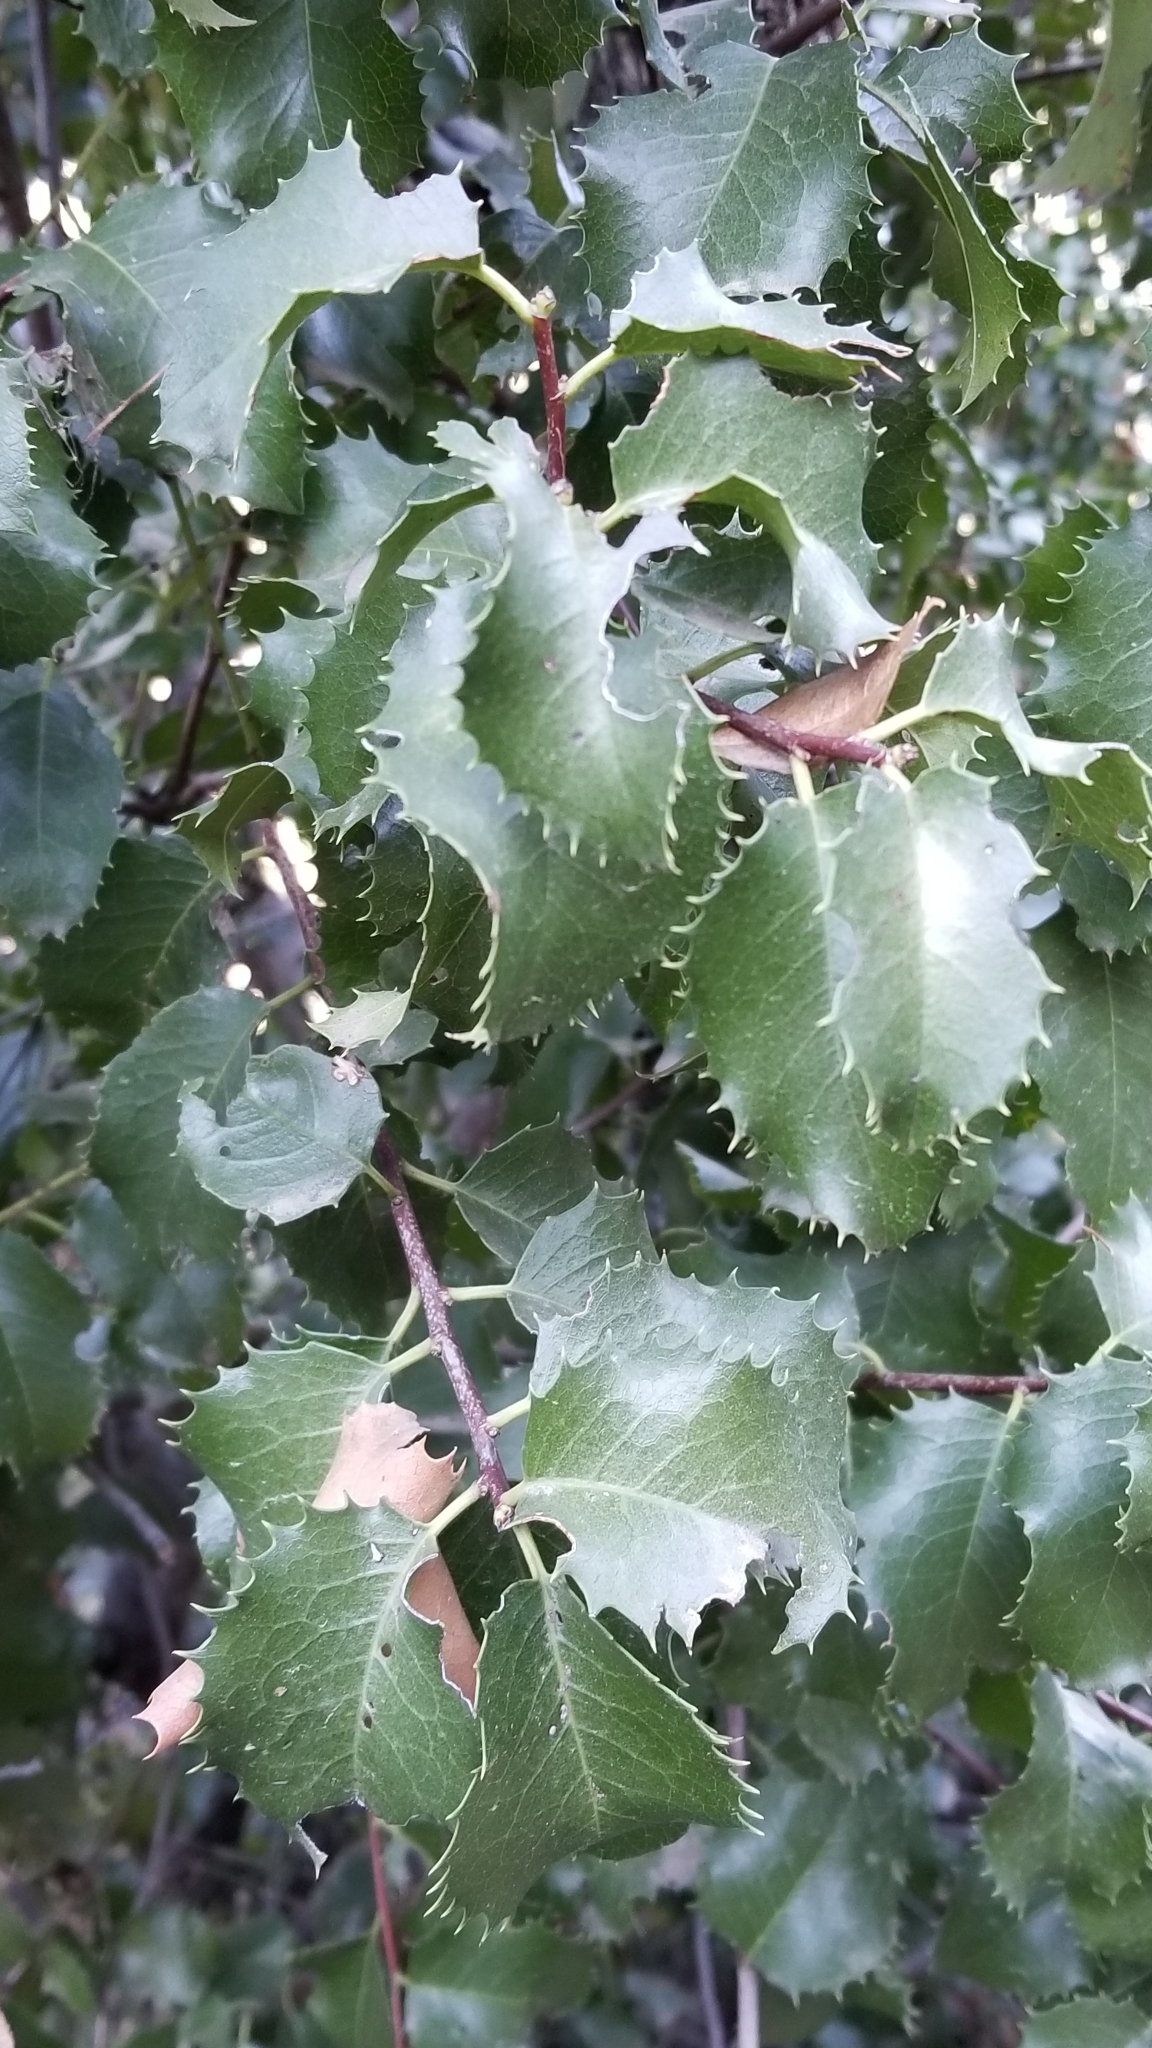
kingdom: Plantae
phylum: Tracheophyta
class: Magnoliopsida
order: Rosales
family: Rosaceae
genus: Prunus
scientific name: Prunus ilicifolia
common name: Hollyleaf cherry
